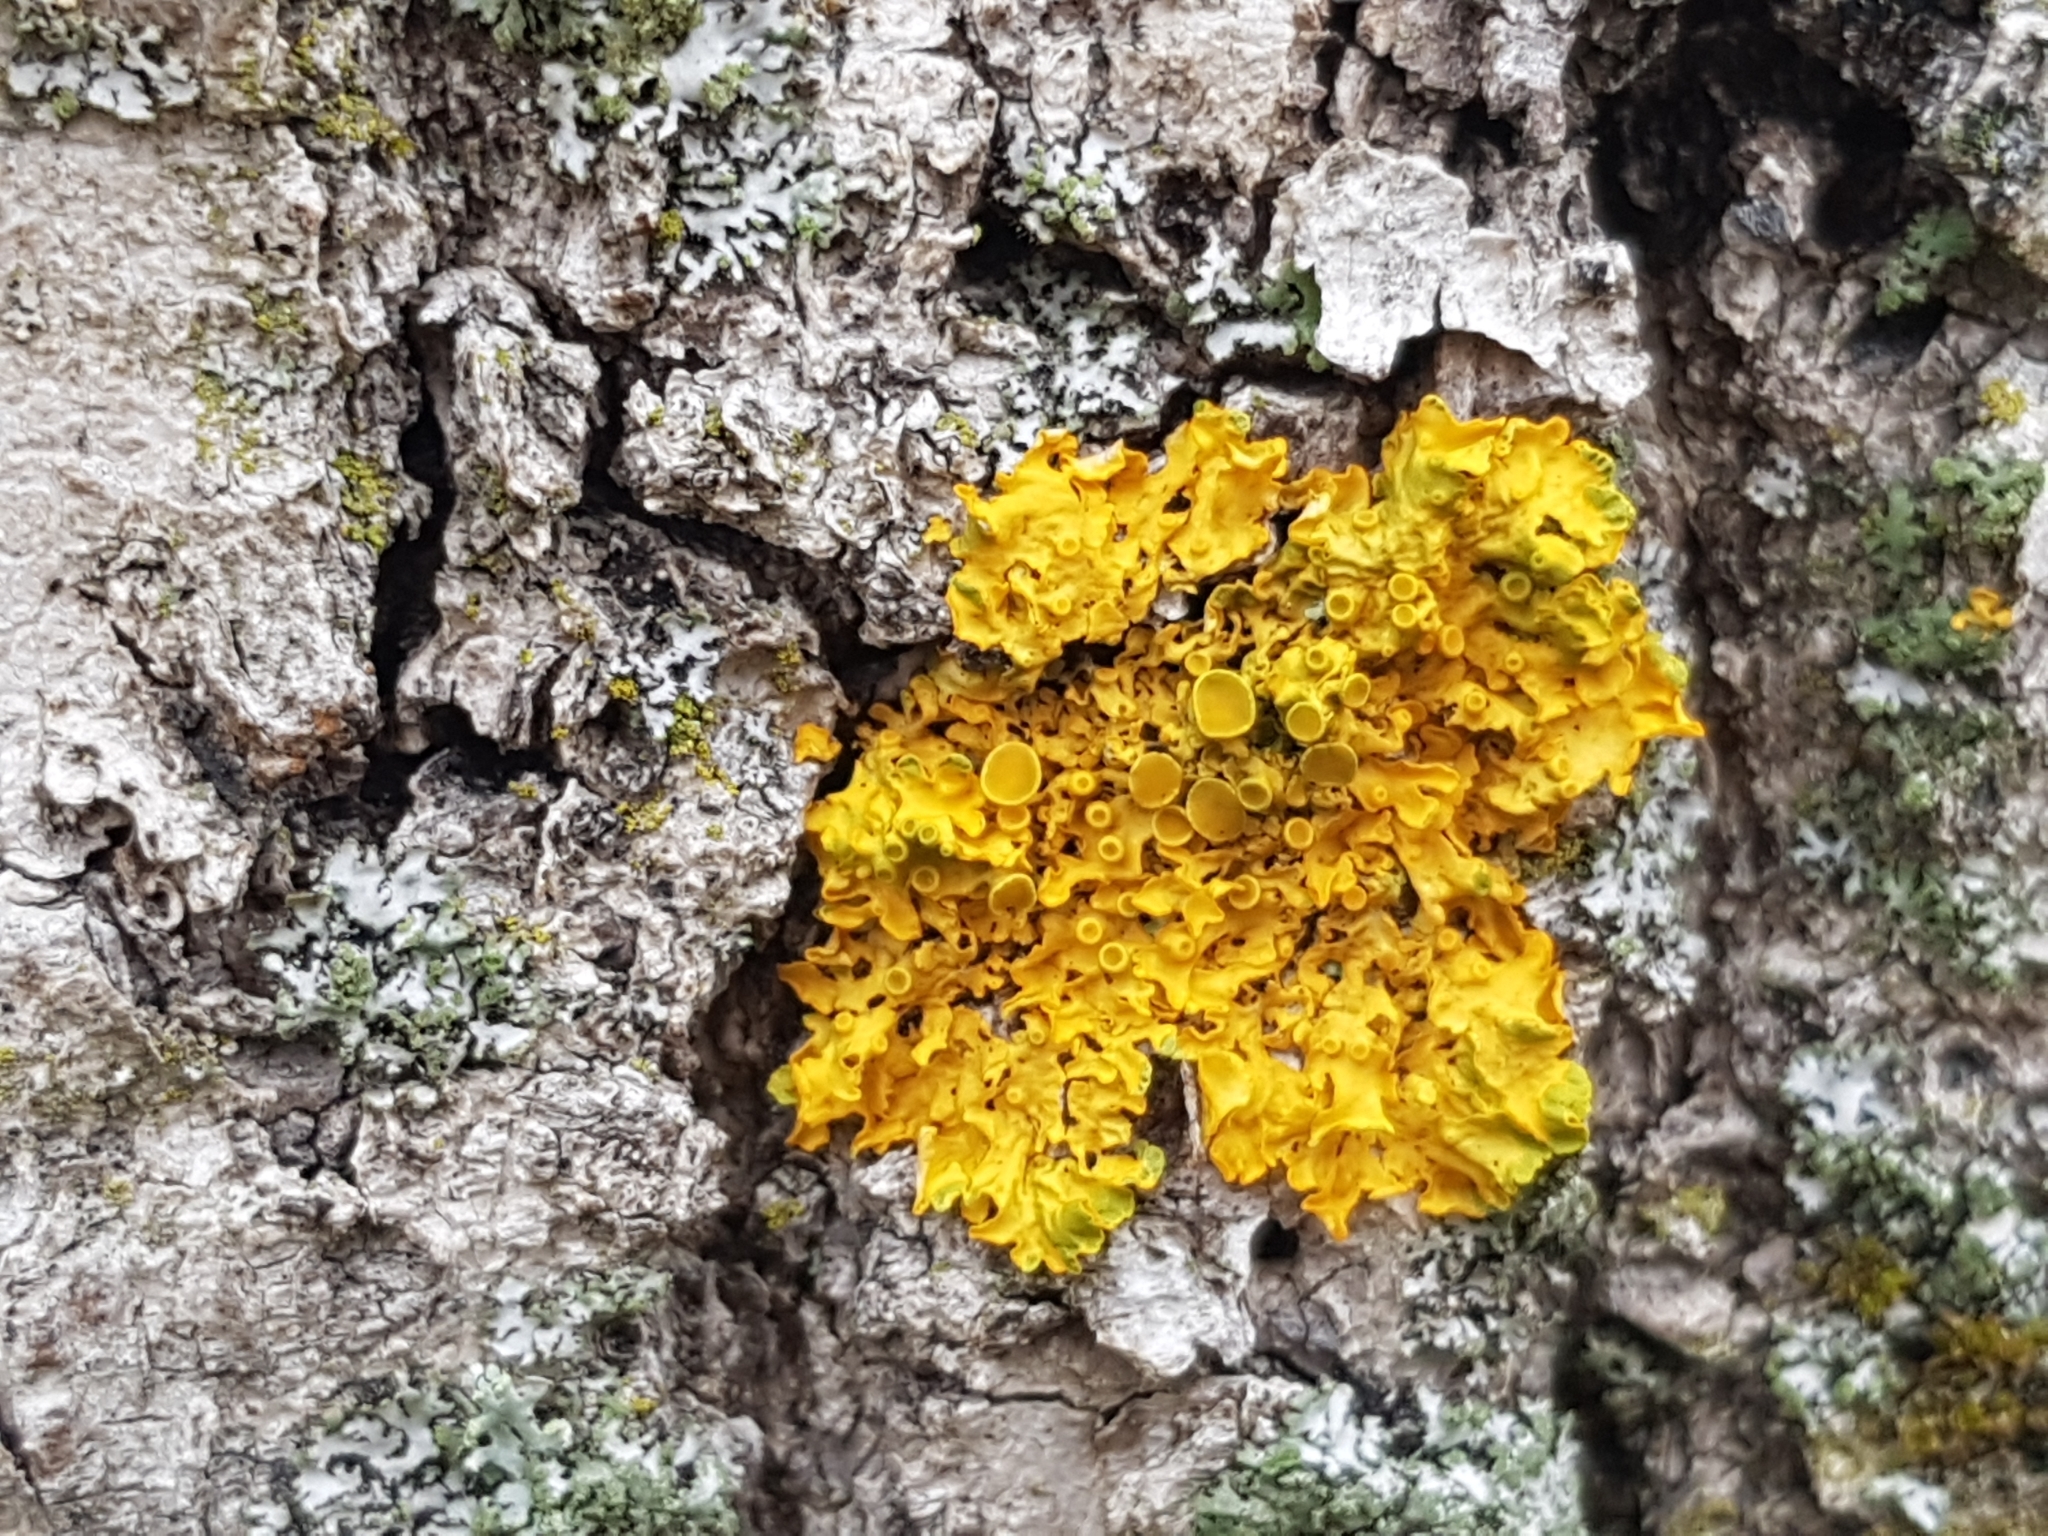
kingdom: Fungi
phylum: Ascomycota
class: Lecanoromycetes
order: Teloschistales
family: Teloschistaceae
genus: Xanthoria
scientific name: Xanthoria parietina
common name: Common orange lichen
